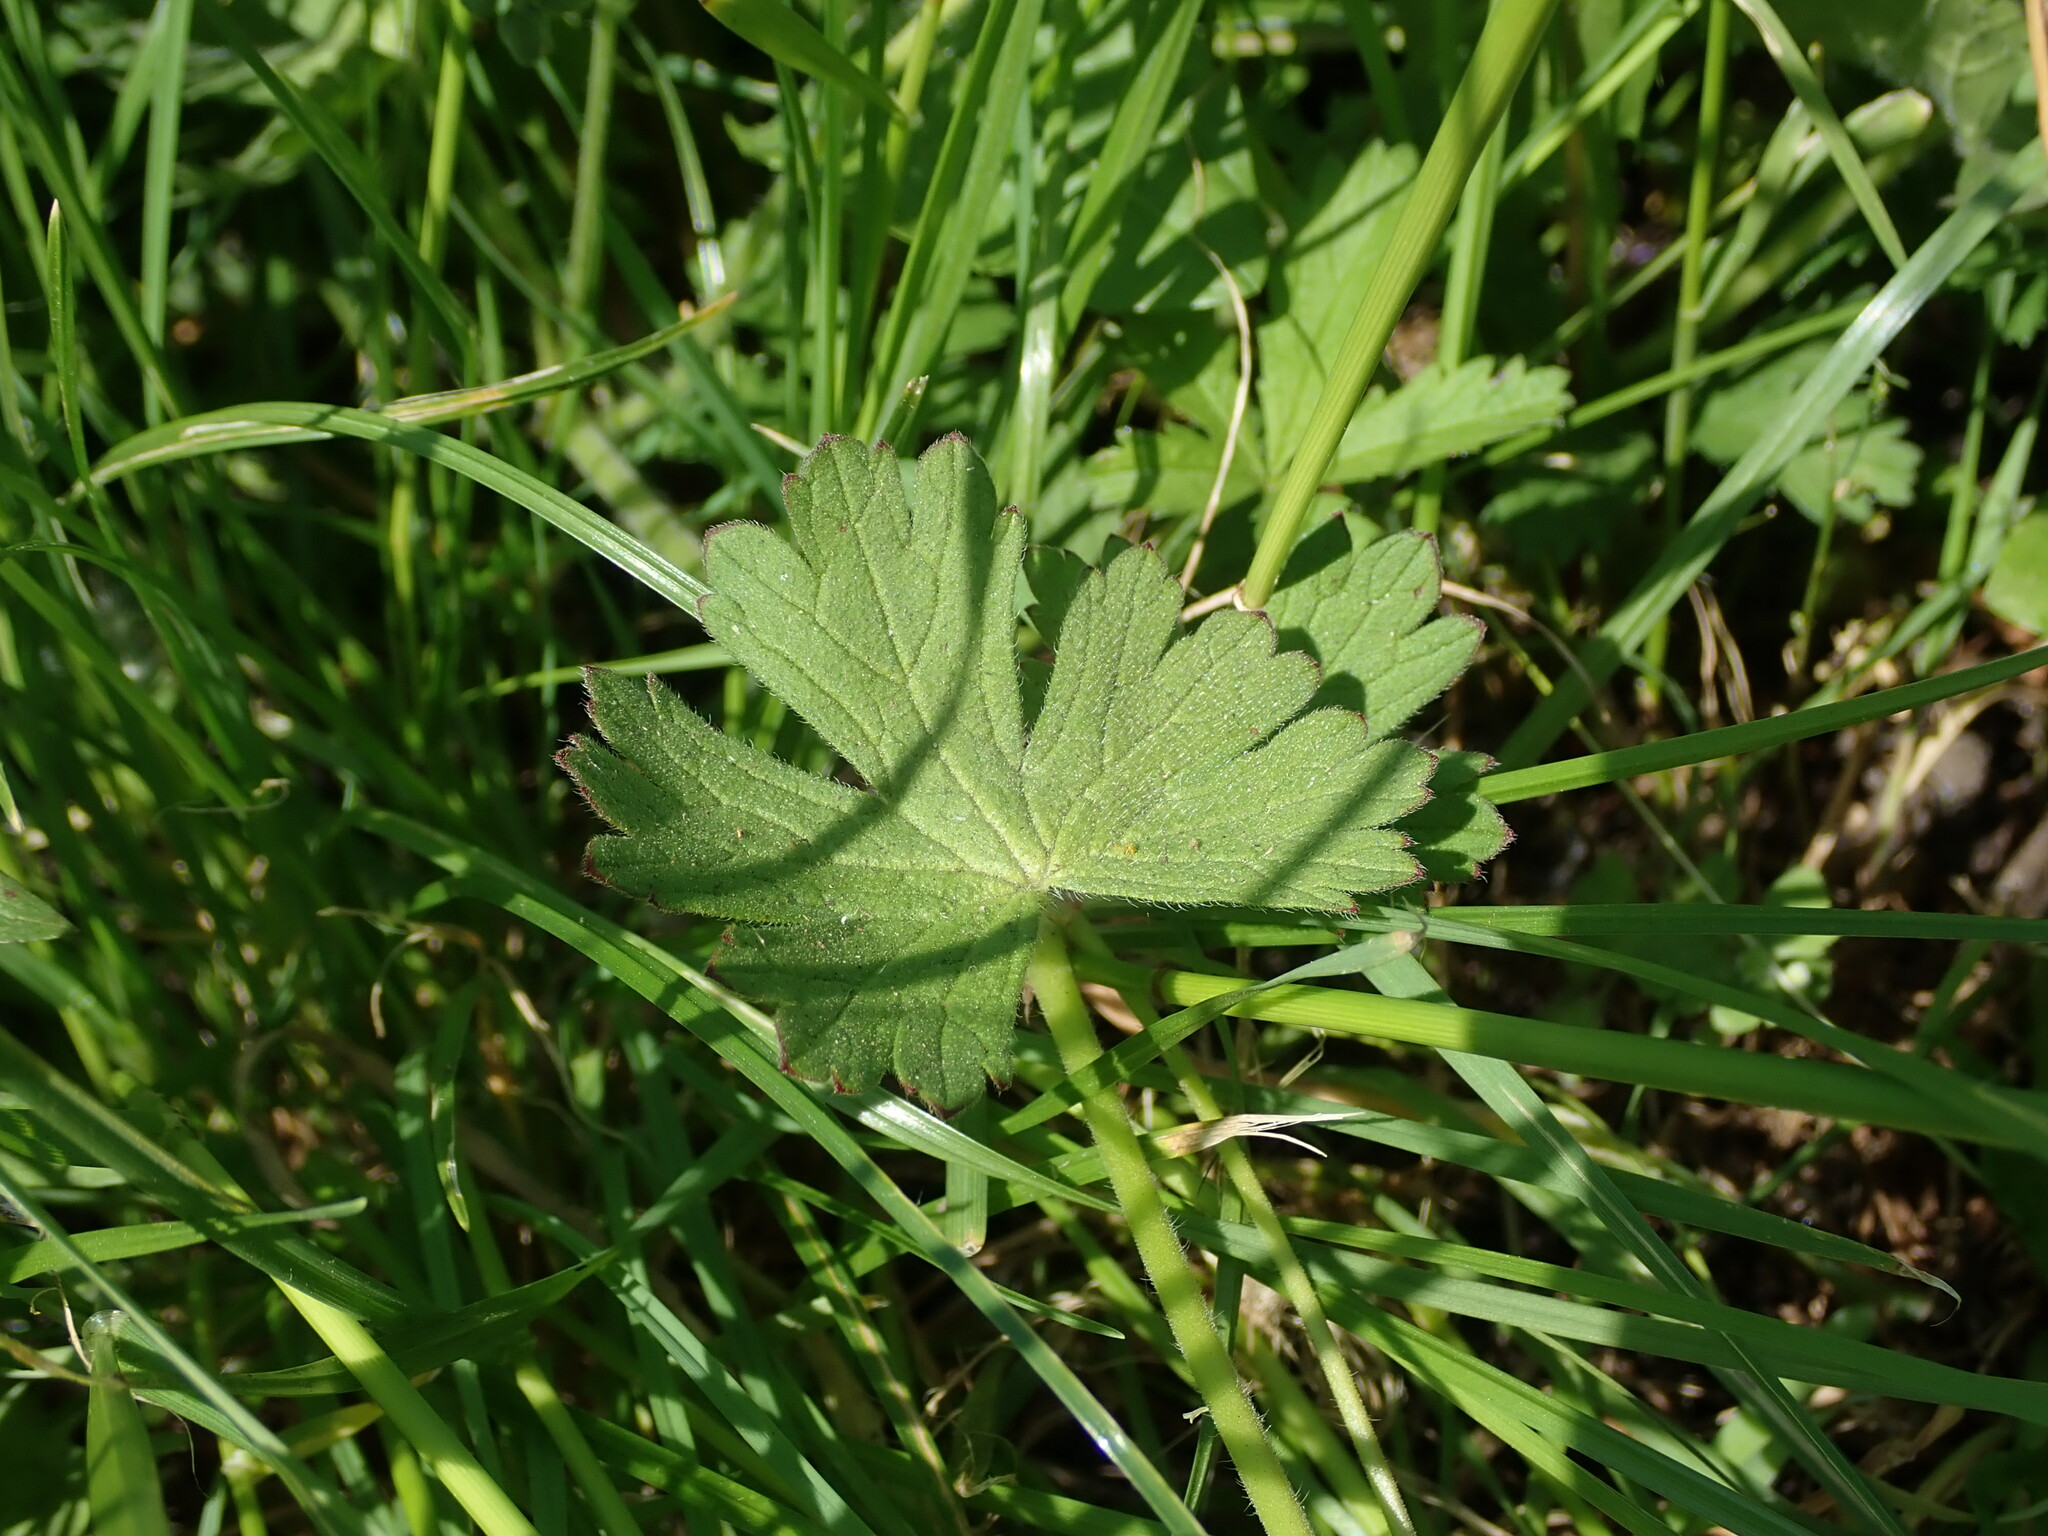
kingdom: Plantae
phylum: Tracheophyta
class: Magnoliopsida
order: Geraniales
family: Geraniaceae
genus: Geranium
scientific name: Geranium pyrenaicum
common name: Hedgerow crane's-bill
